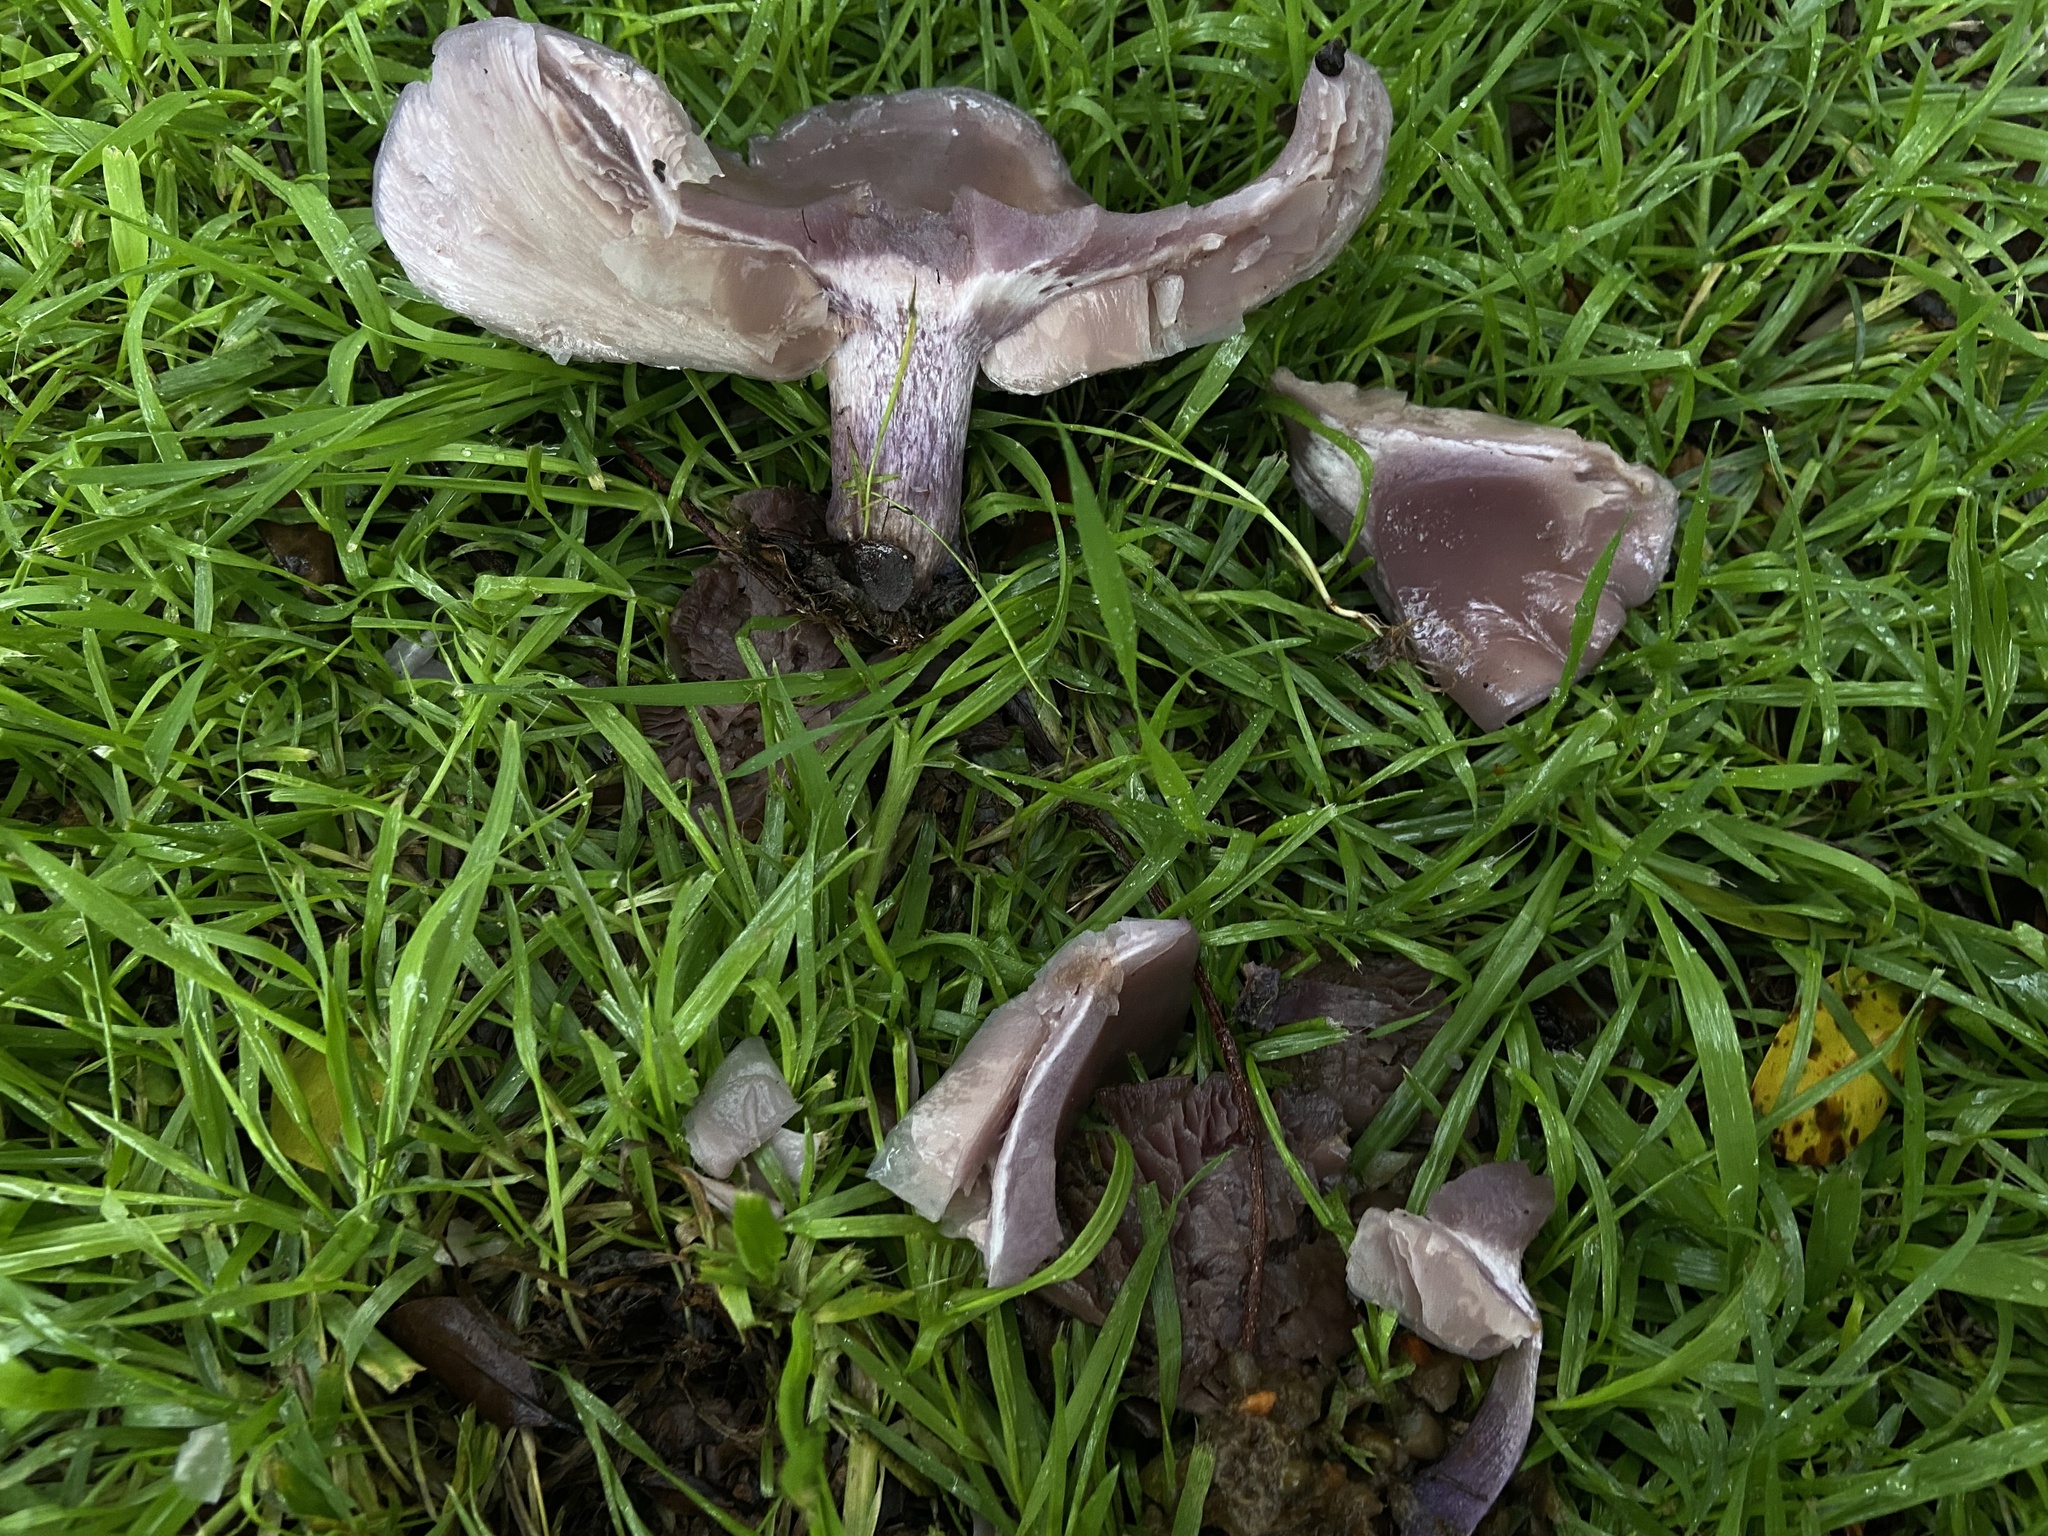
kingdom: Fungi
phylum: Basidiomycota
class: Agaricomycetes
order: Agaricales
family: Tricholomataceae
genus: Collybia
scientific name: Collybia
